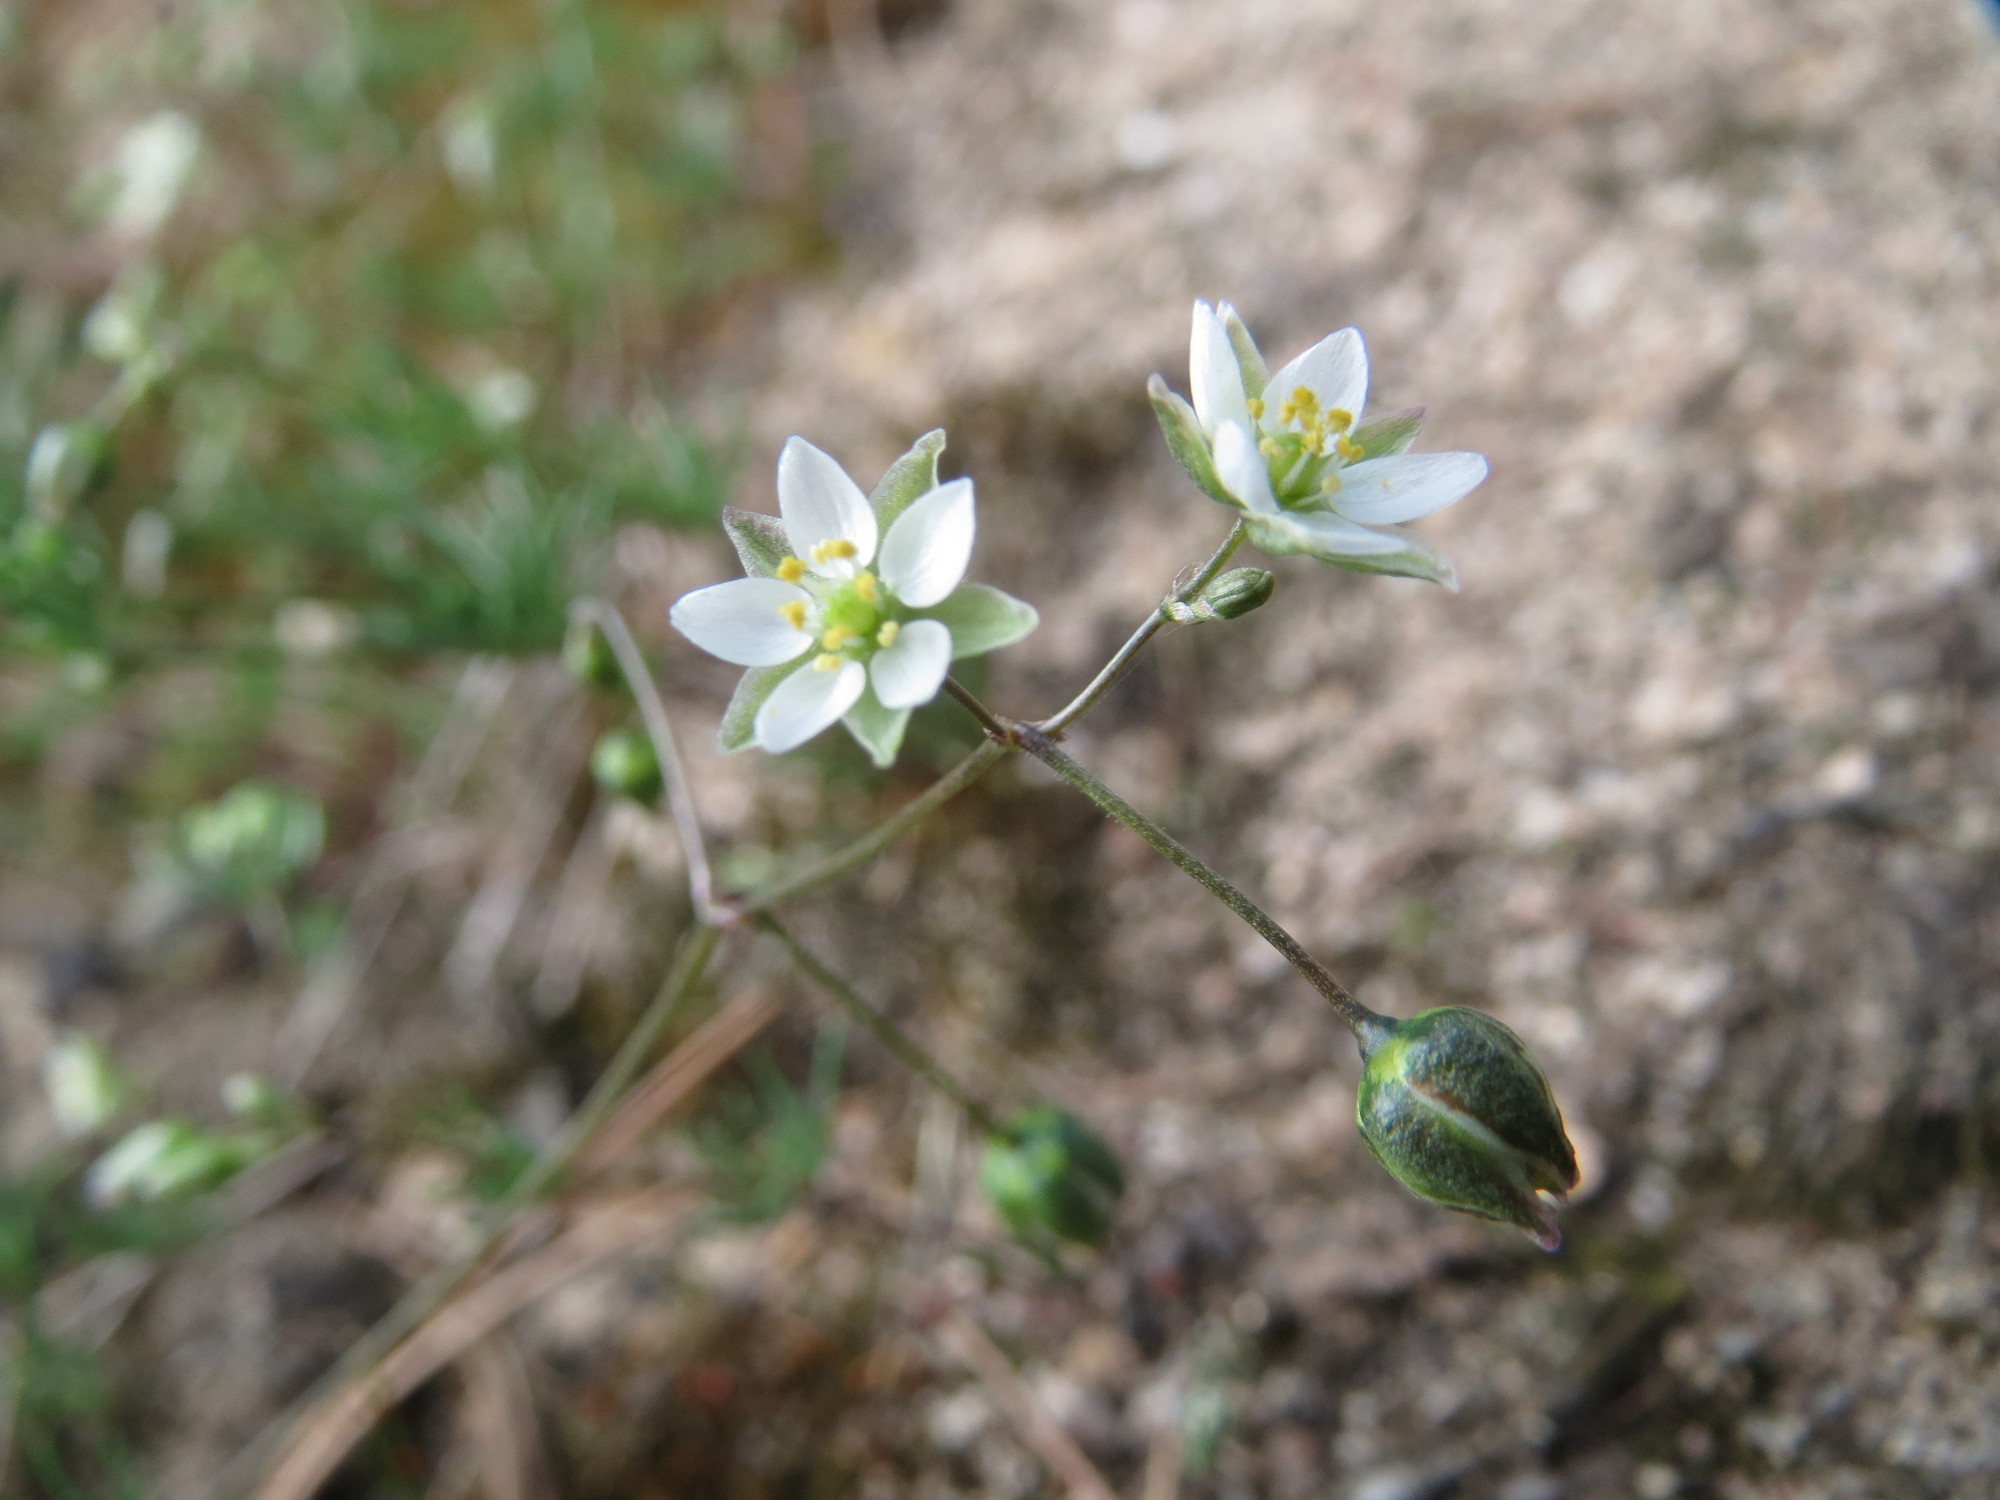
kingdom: Plantae
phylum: Tracheophyta
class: Magnoliopsida
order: Caryophyllales
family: Caryophyllaceae
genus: Spergula
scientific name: Spergula morisonii
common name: Pearlwort spurrey
